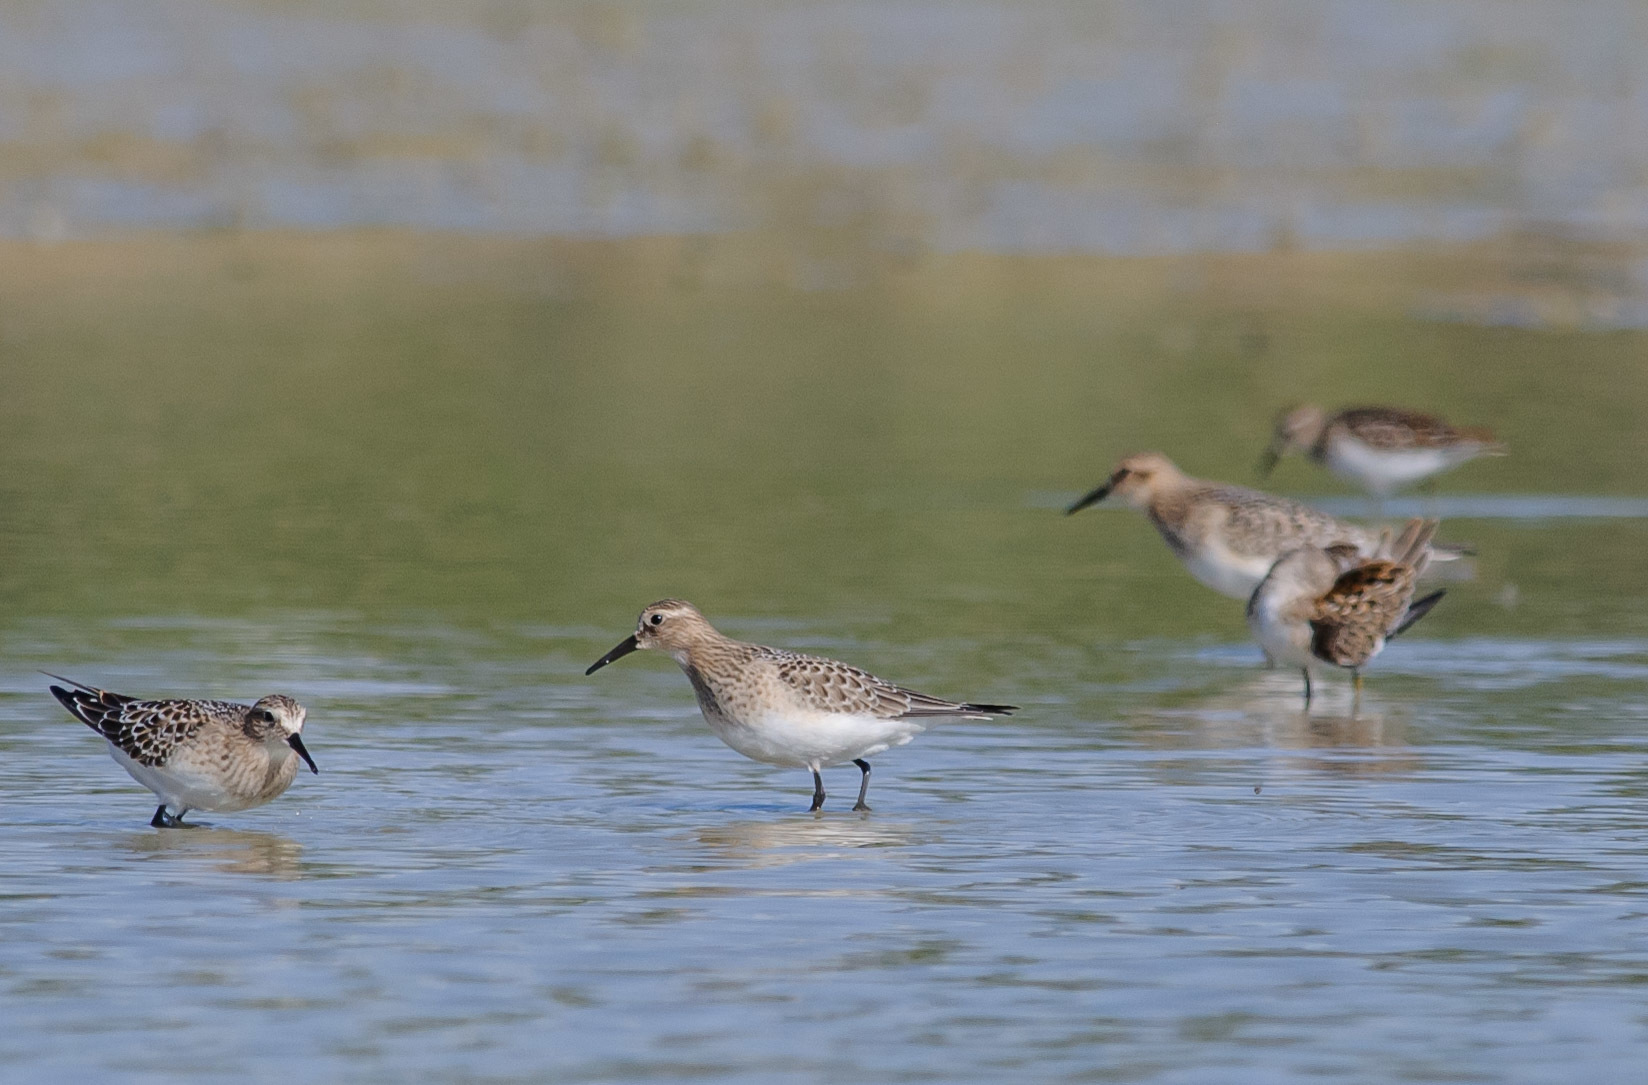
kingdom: Animalia
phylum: Chordata
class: Aves
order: Charadriiformes
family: Scolopacidae
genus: Calidris
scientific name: Calidris bairdii
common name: Baird's sandpiper
